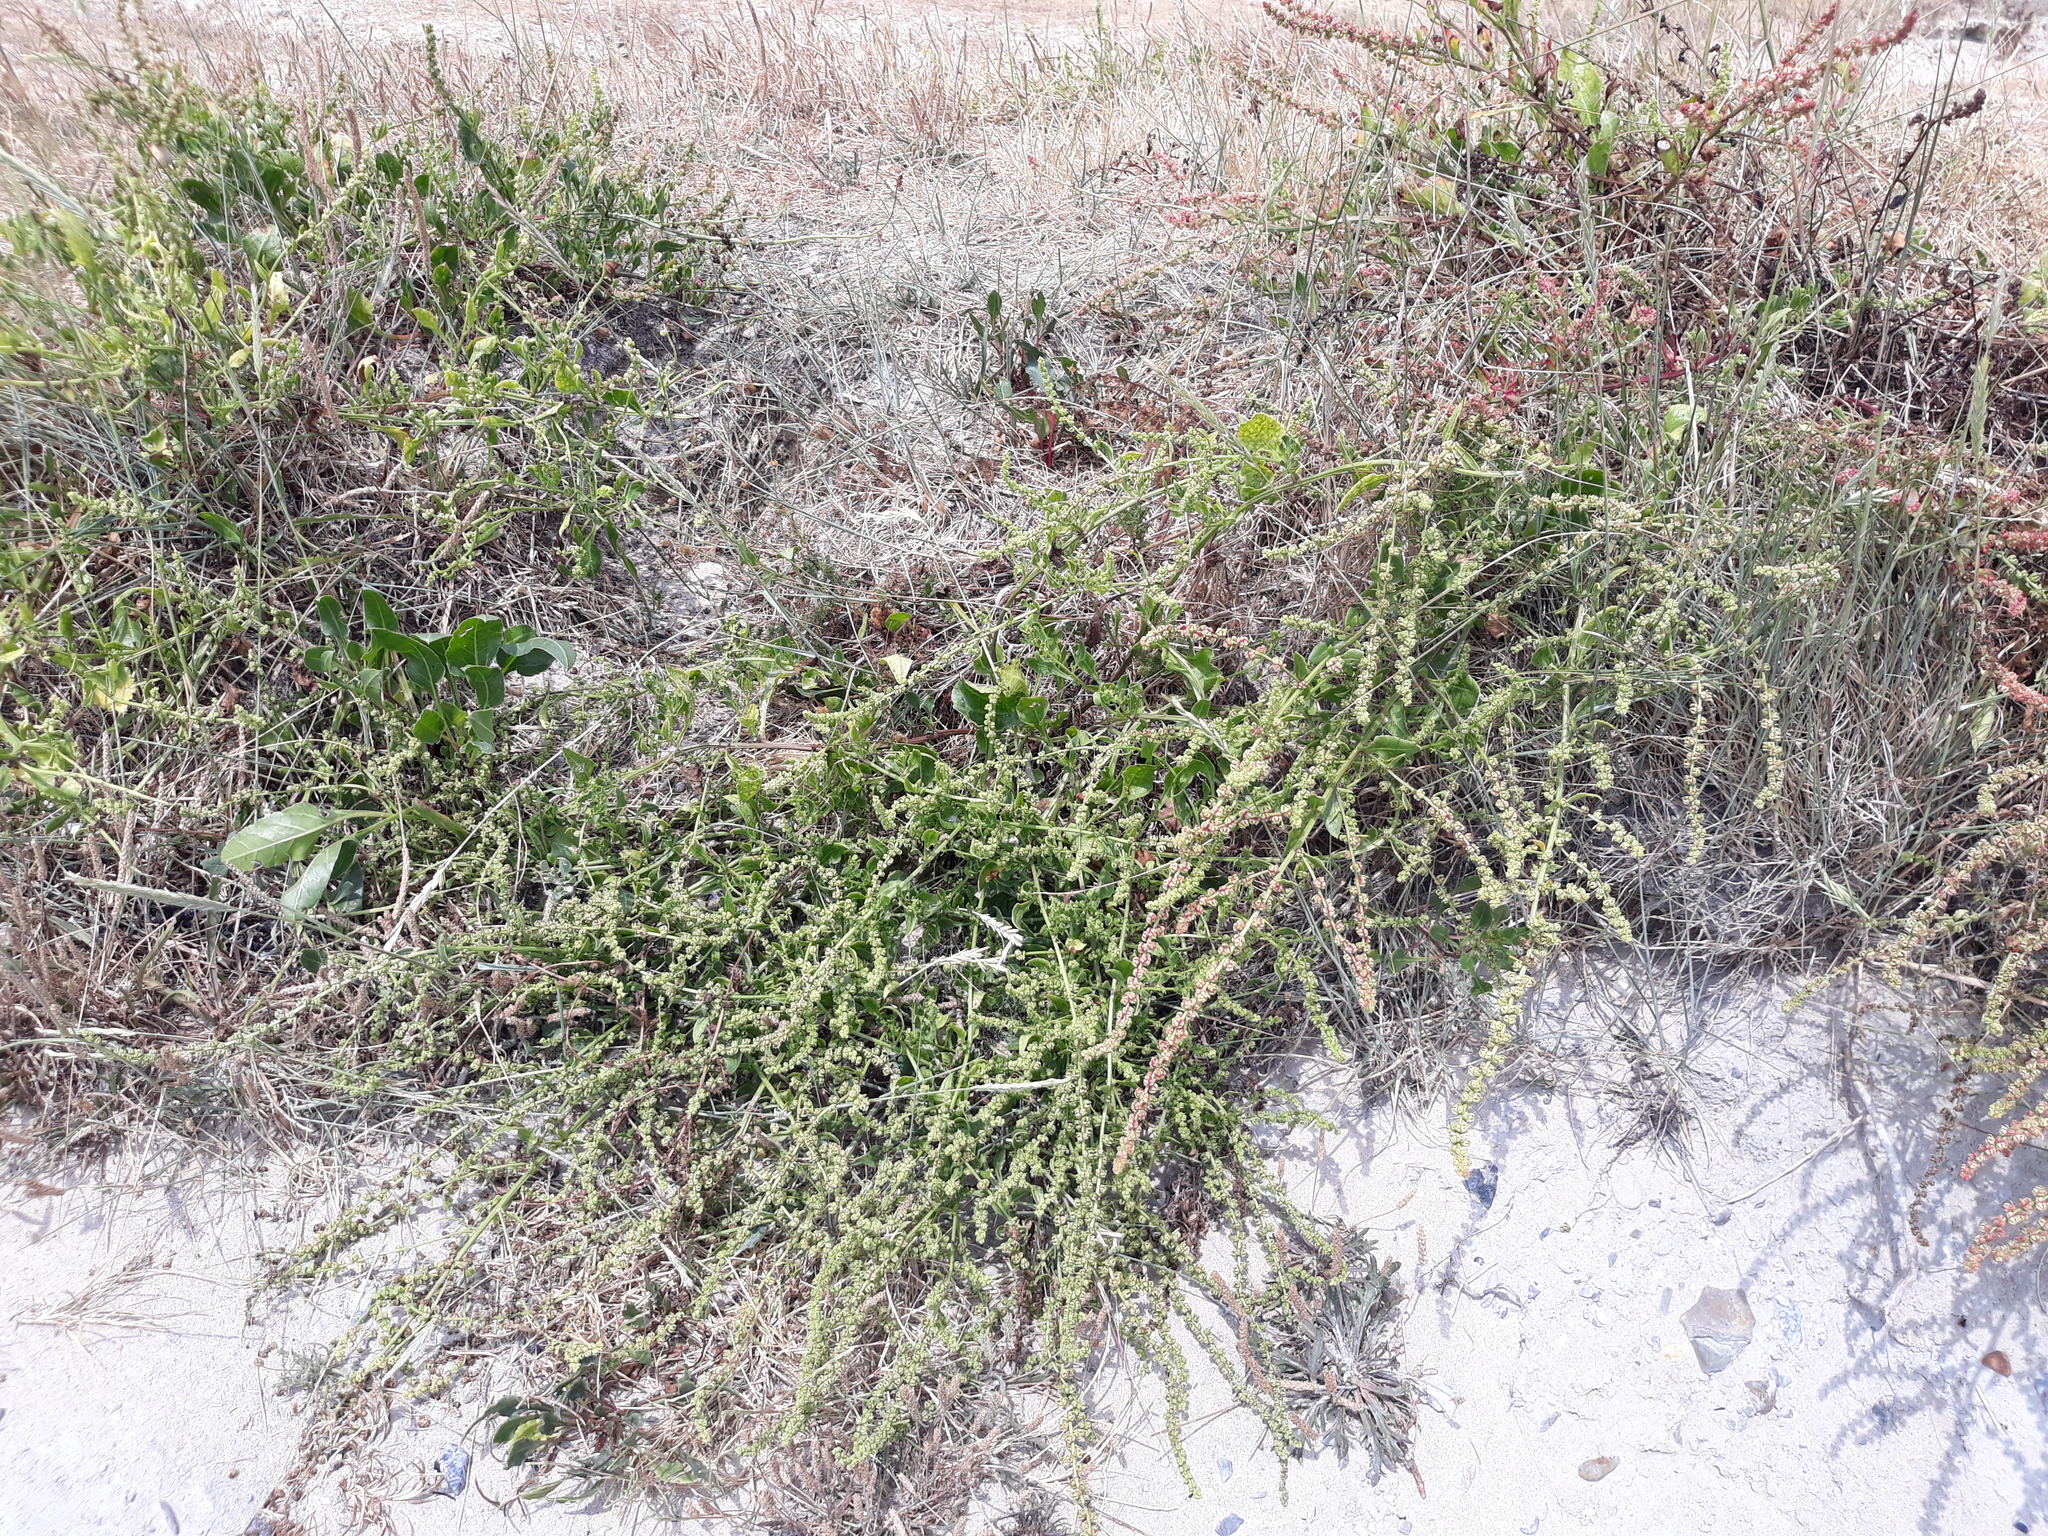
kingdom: Plantae
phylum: Tracheophyta
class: Magnoliopsida
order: Caryophyllales
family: Amaranthaceae
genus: Beta
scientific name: Beta vulgaris
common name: Beet
